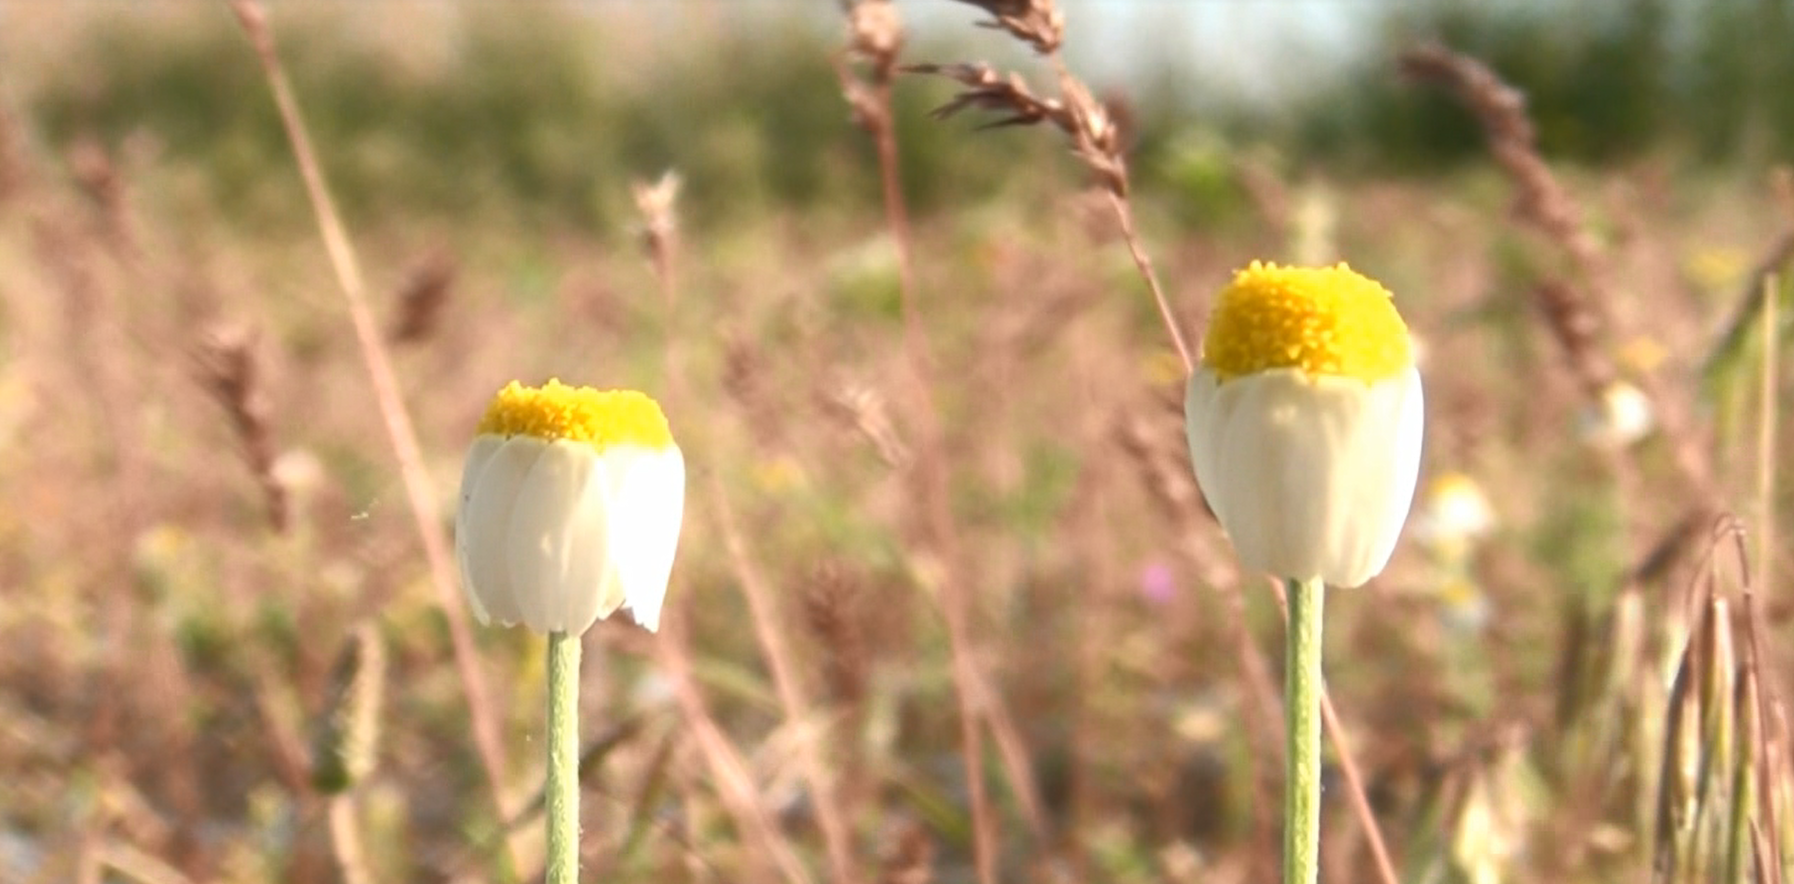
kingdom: Plantae
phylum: Tracheophyta
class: Magnoliopsida
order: Asterales
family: Asteraceae
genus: Anthemis
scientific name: Anthemis ruthenica
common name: Eastern chamomile
